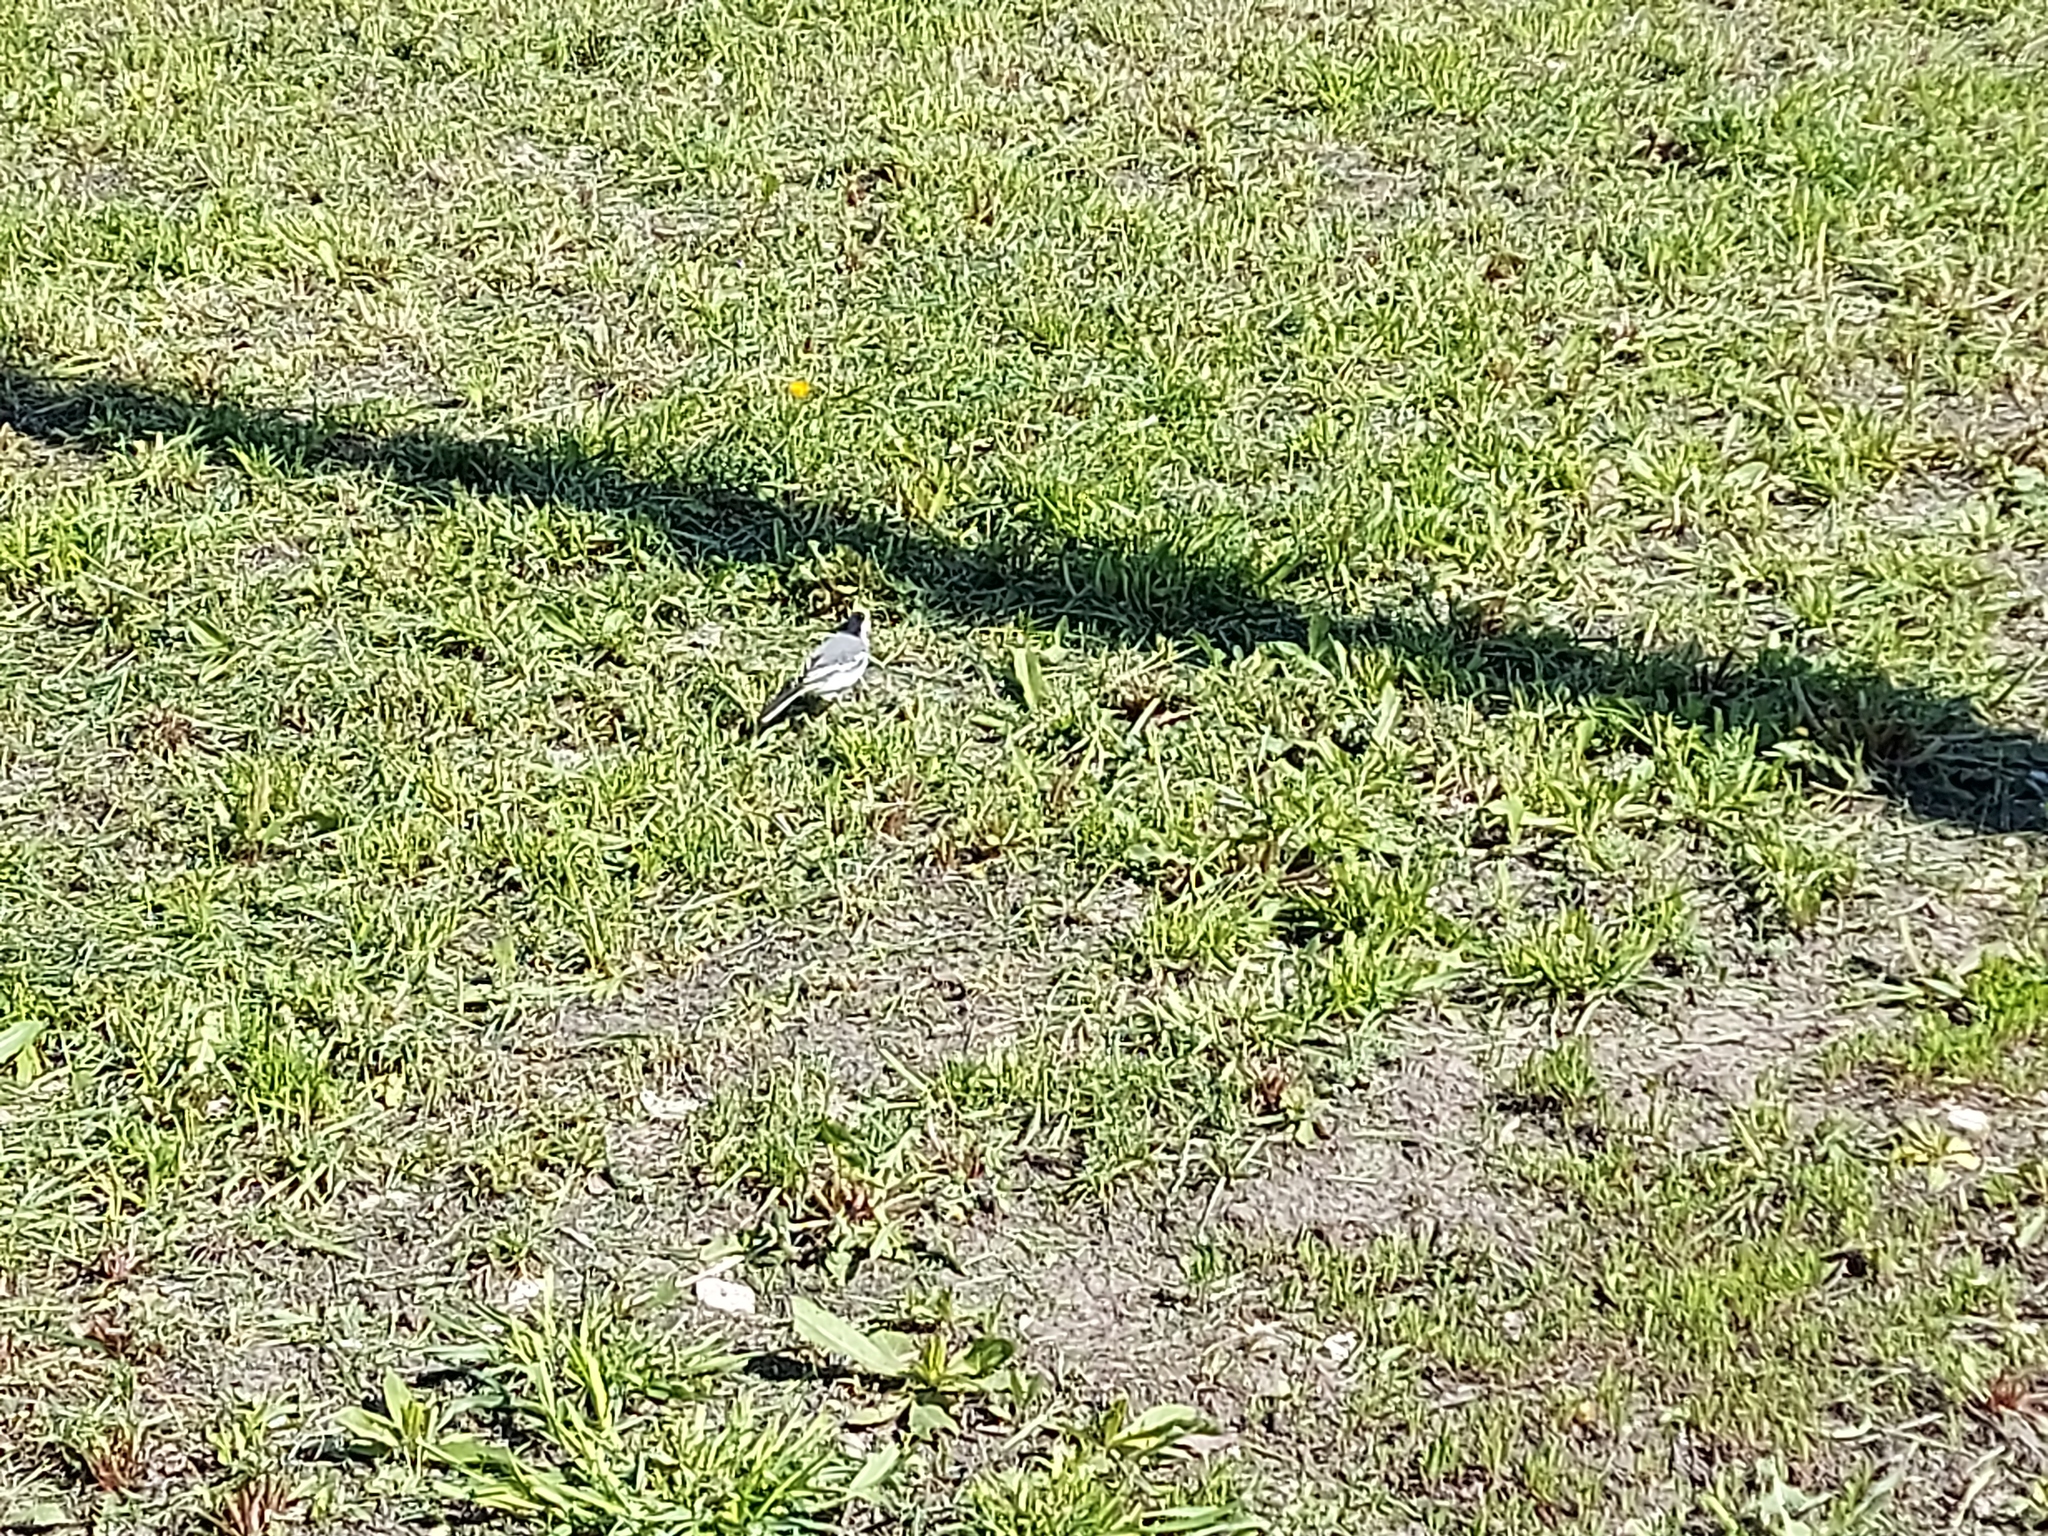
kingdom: Animalia
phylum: Chordata
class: Aves
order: Passeriformes
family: Motacillidae
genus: Motacilla
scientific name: Motacilla alba
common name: White wagtail
